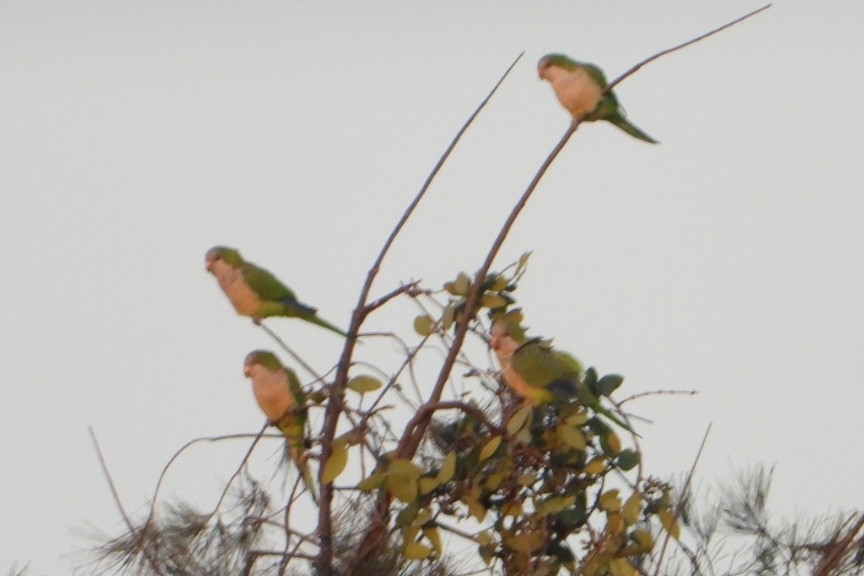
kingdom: Animalia
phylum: Chordata
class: Aves
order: Psittaciformes
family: Psittacidae
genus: Myiopsitta
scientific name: Myiopsitta monachus
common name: Monk parakeet
